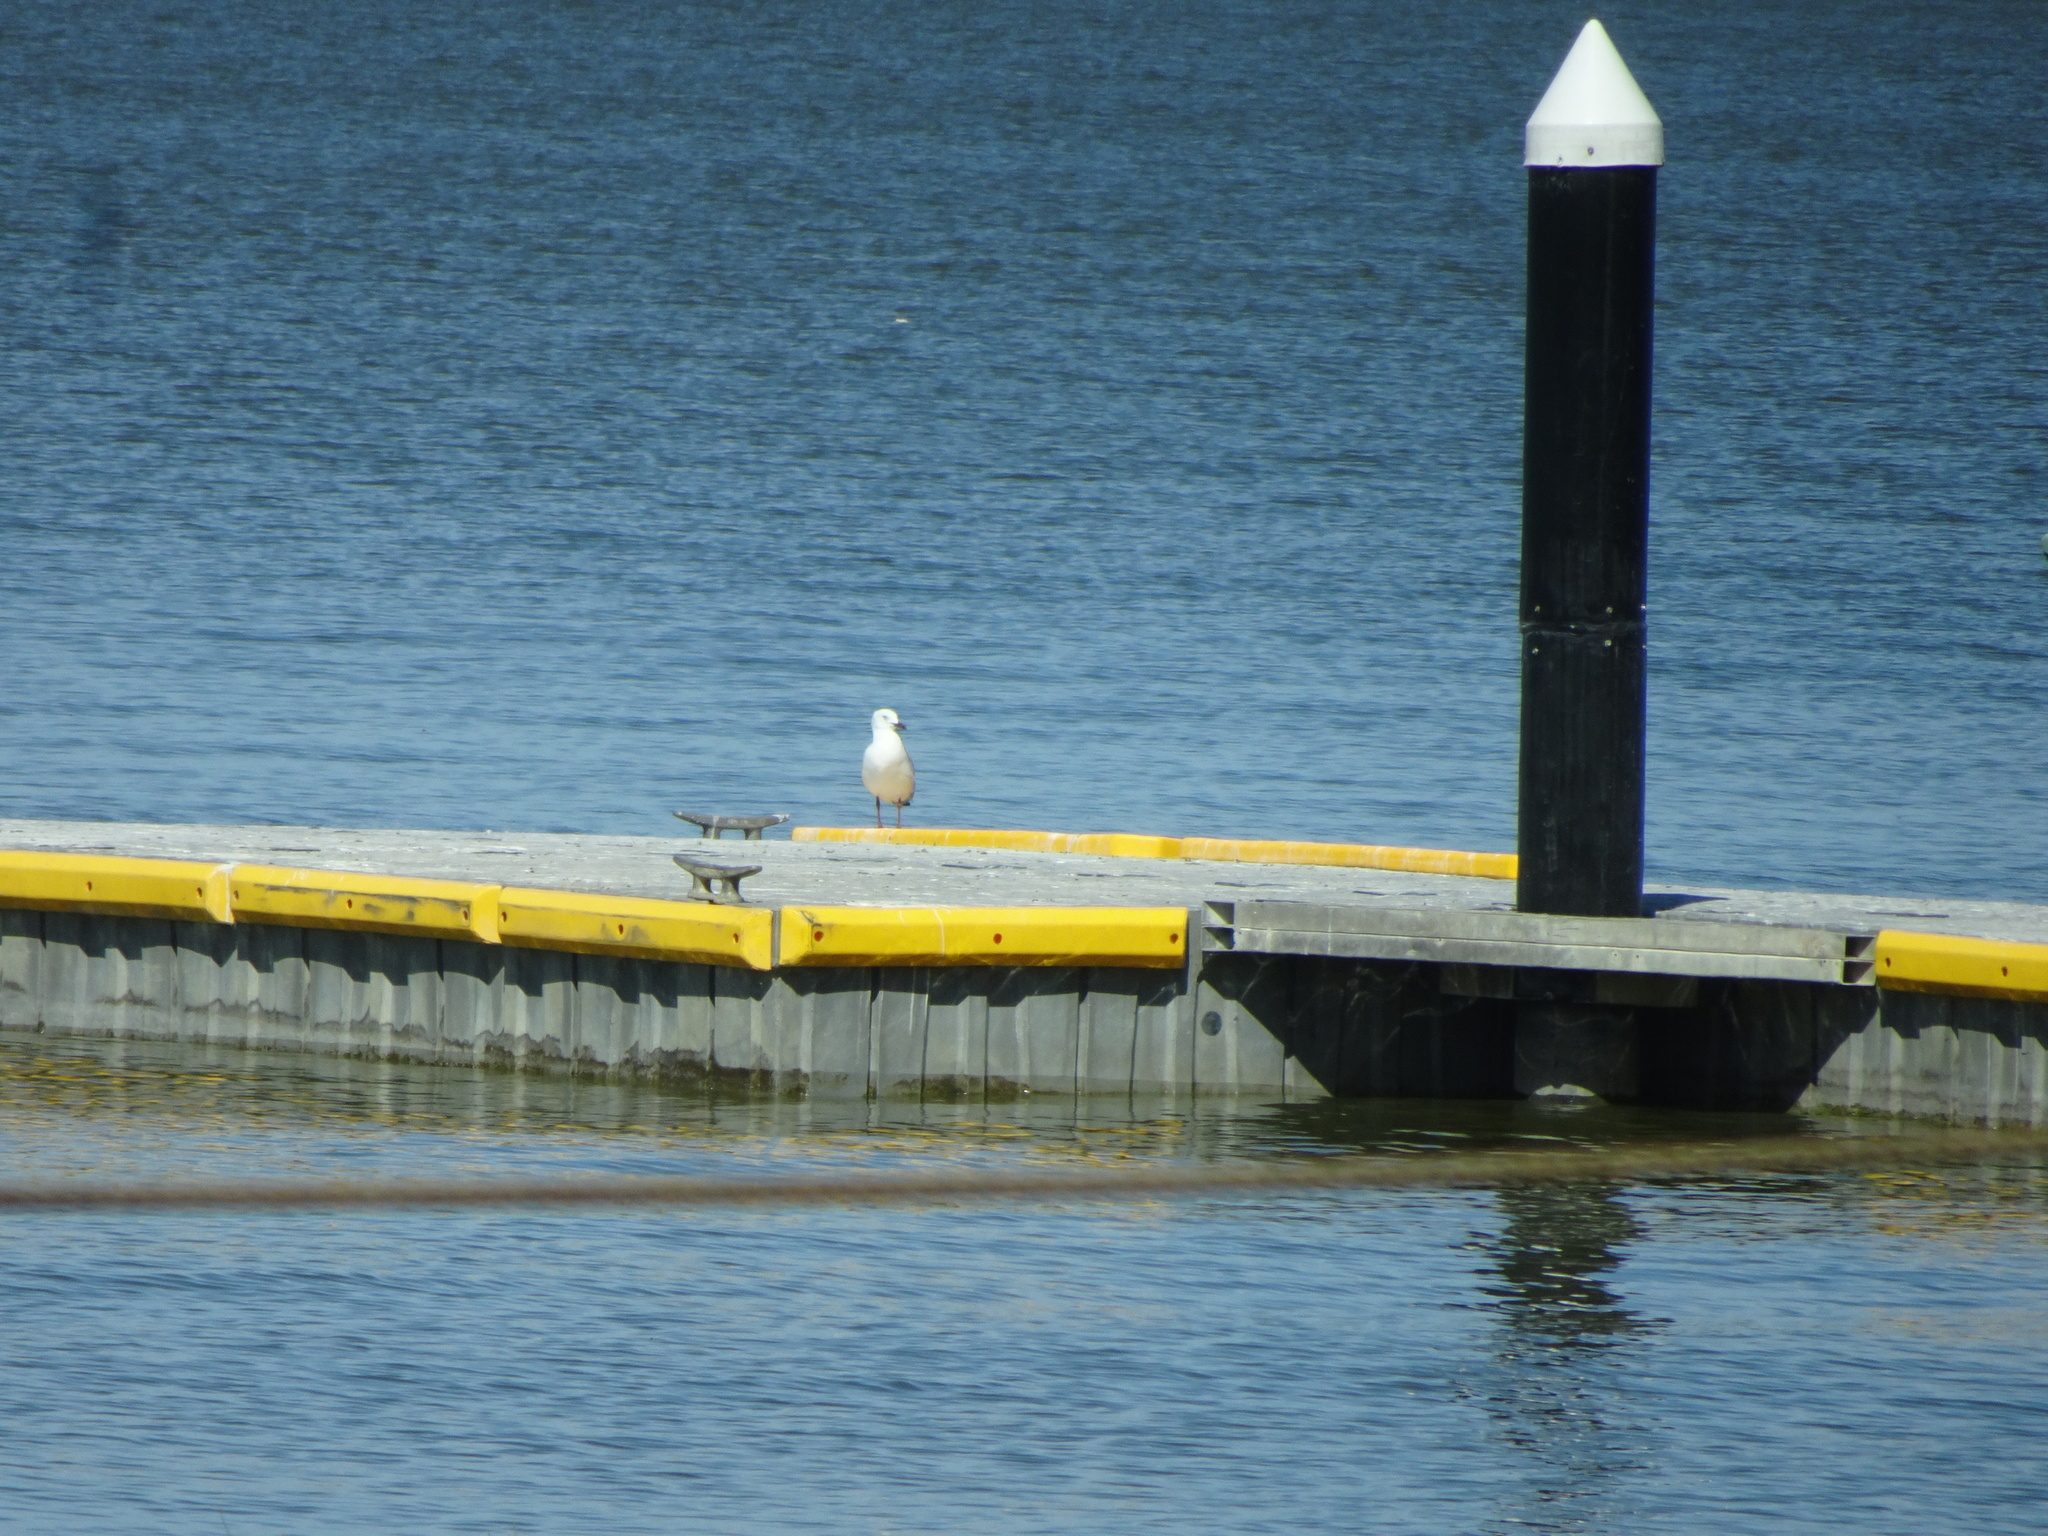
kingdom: Animalia
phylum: Chordata
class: Aves
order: Charadriiformes
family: Laridae
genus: Chroicocephalus
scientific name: Chroicocephalus novaehollandiae
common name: Silver gull
